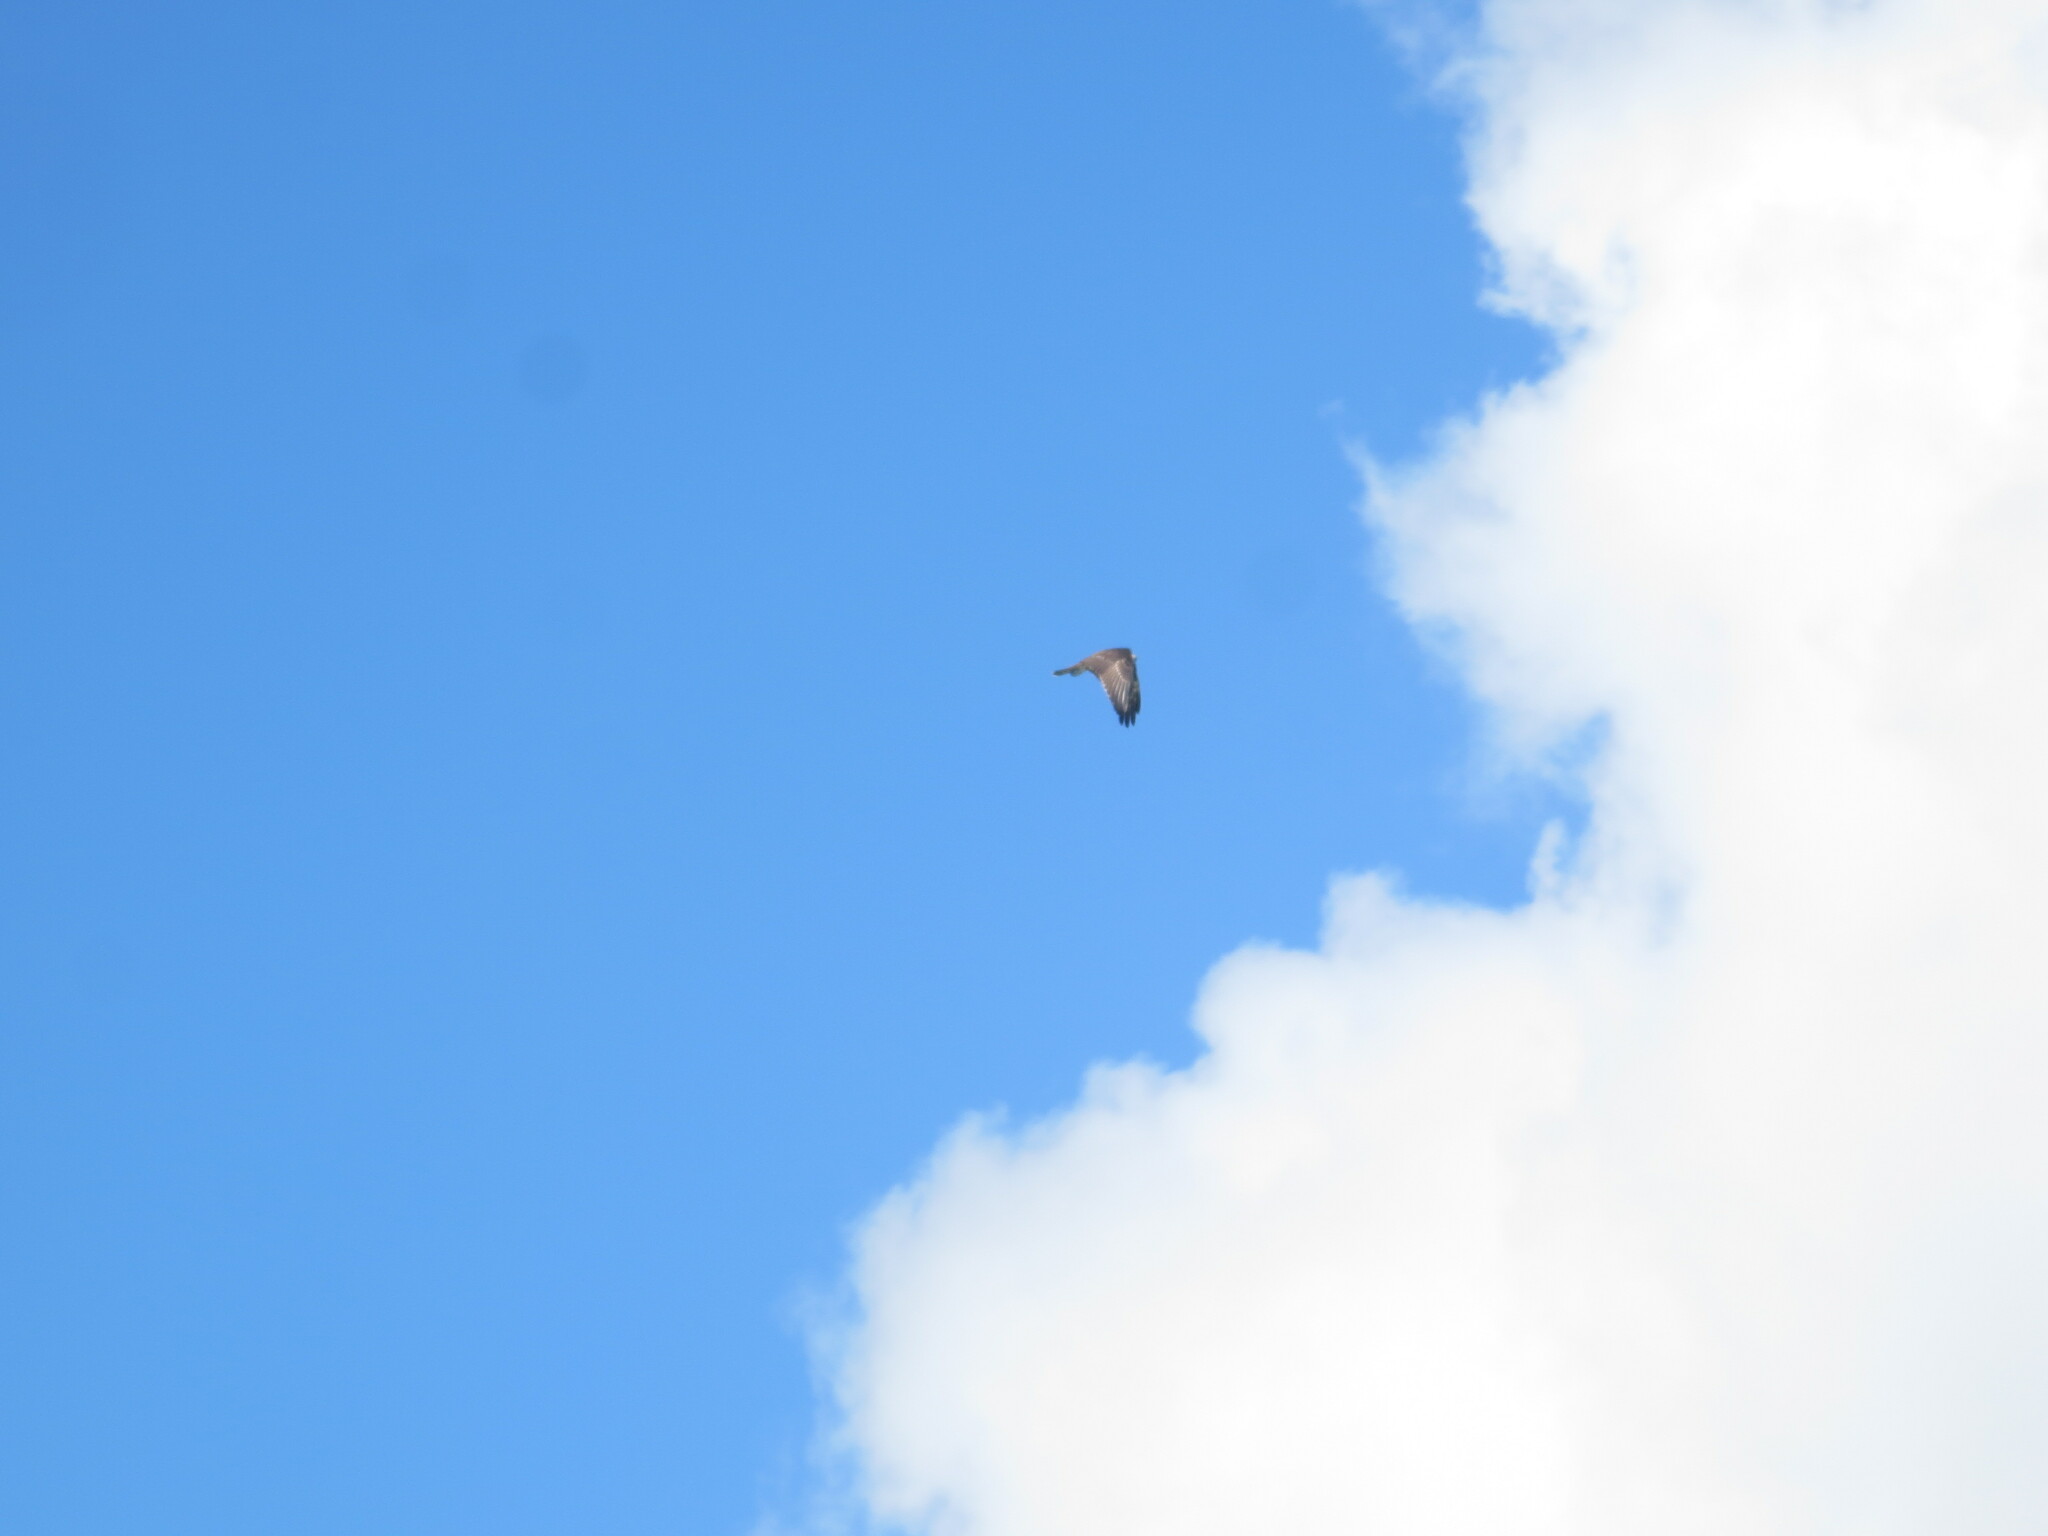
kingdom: Animalia
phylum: Chordata
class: Aves
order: Accipitriformes
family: Pandionidae
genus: Pandion
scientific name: Pandion haliaetus
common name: Osprey
